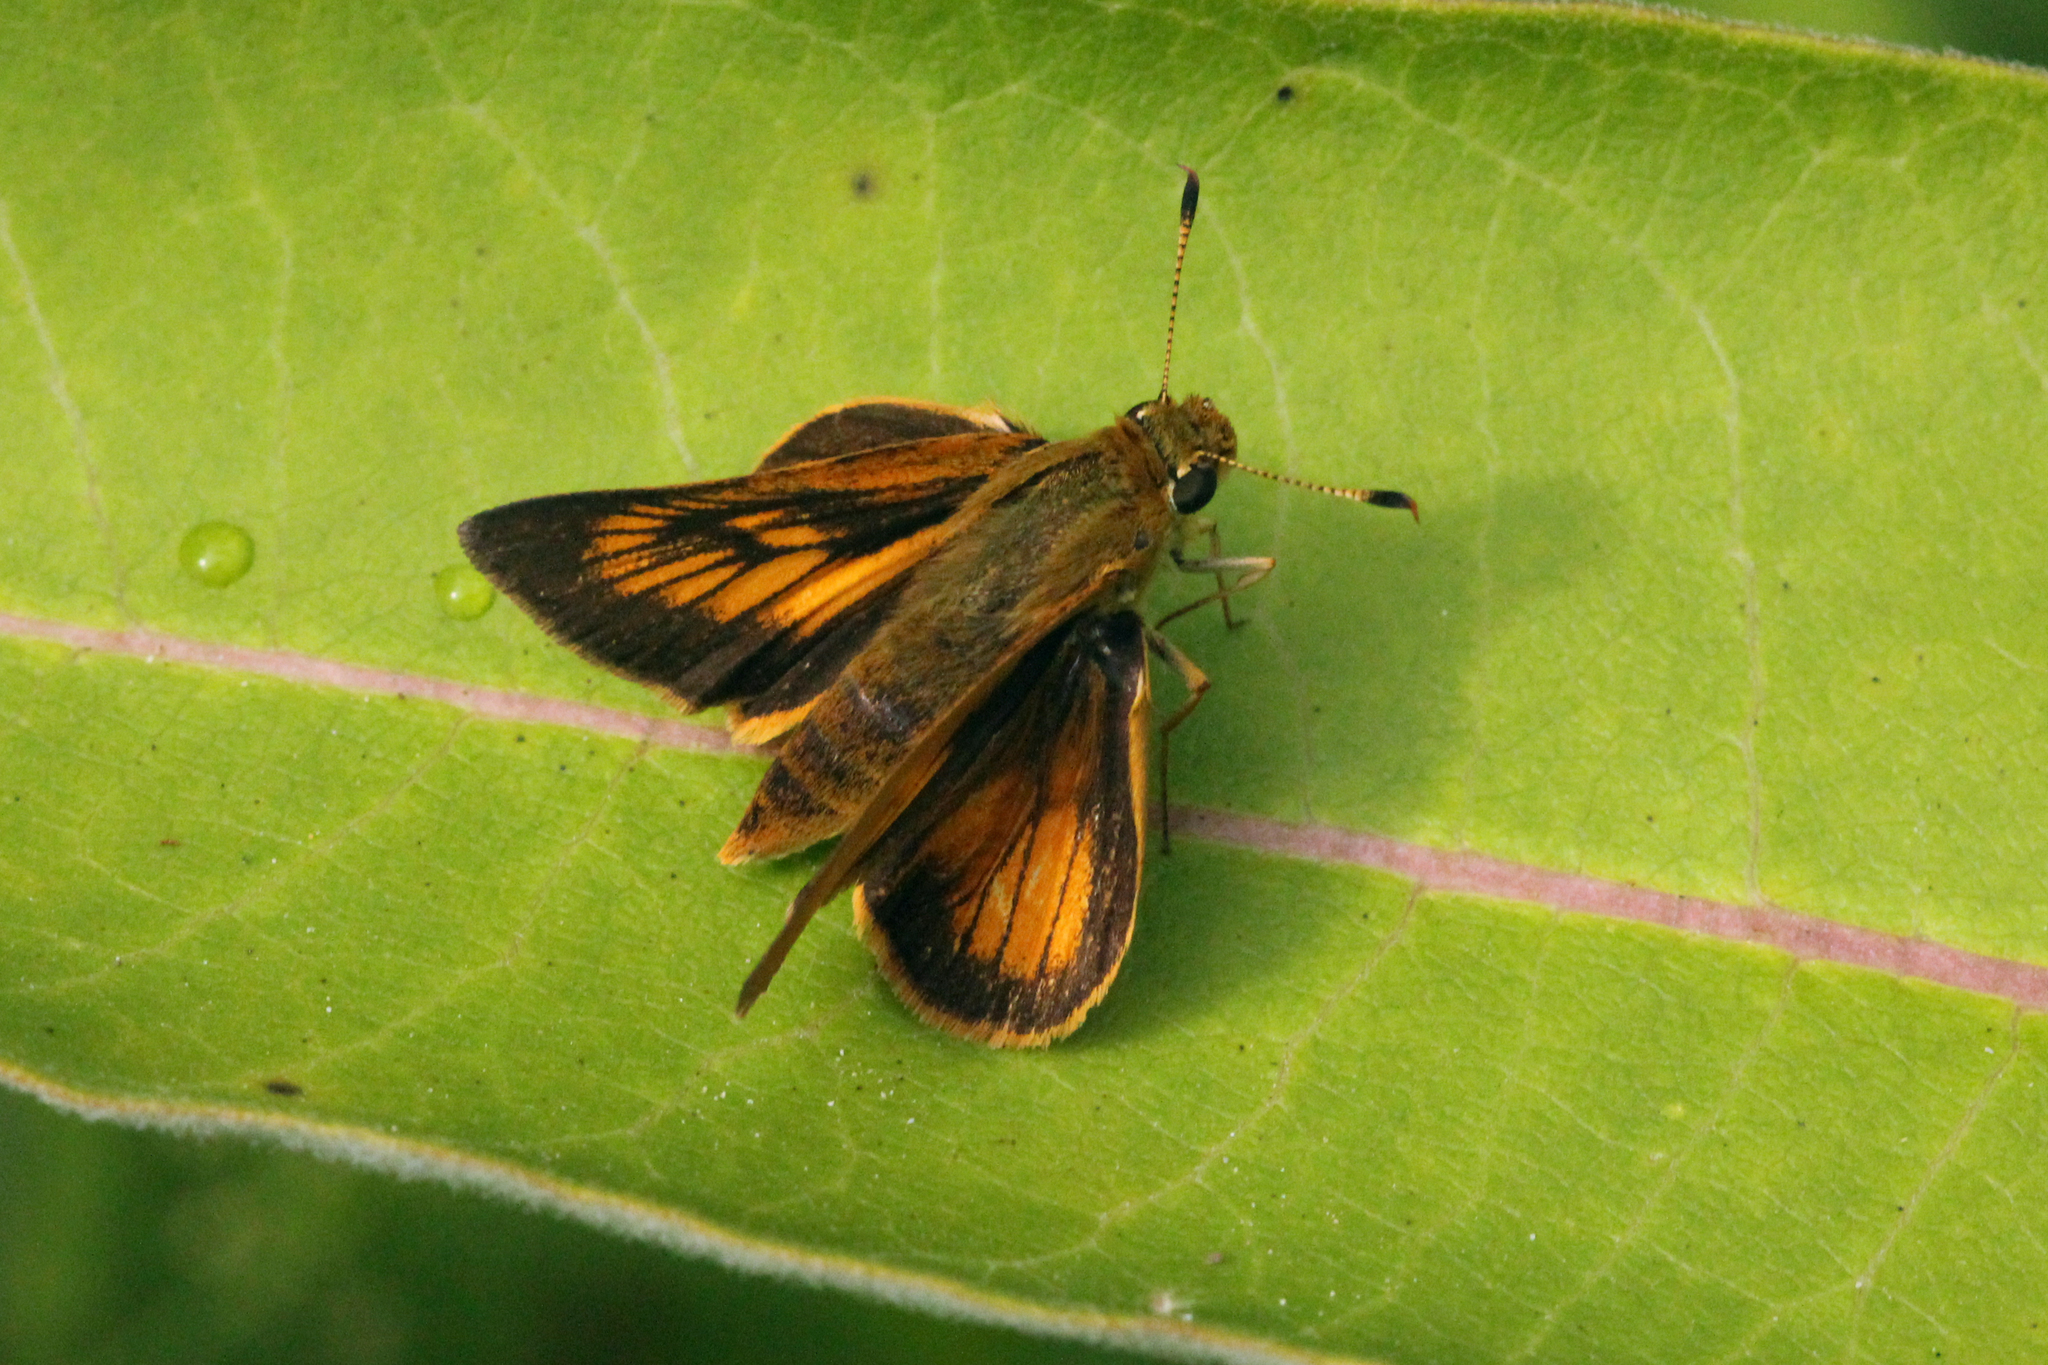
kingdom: Animalia
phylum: Arthropoda
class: Insecta
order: Lepidoptera
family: Hesperiidae
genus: Atrytone
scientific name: Atrytone delaware
